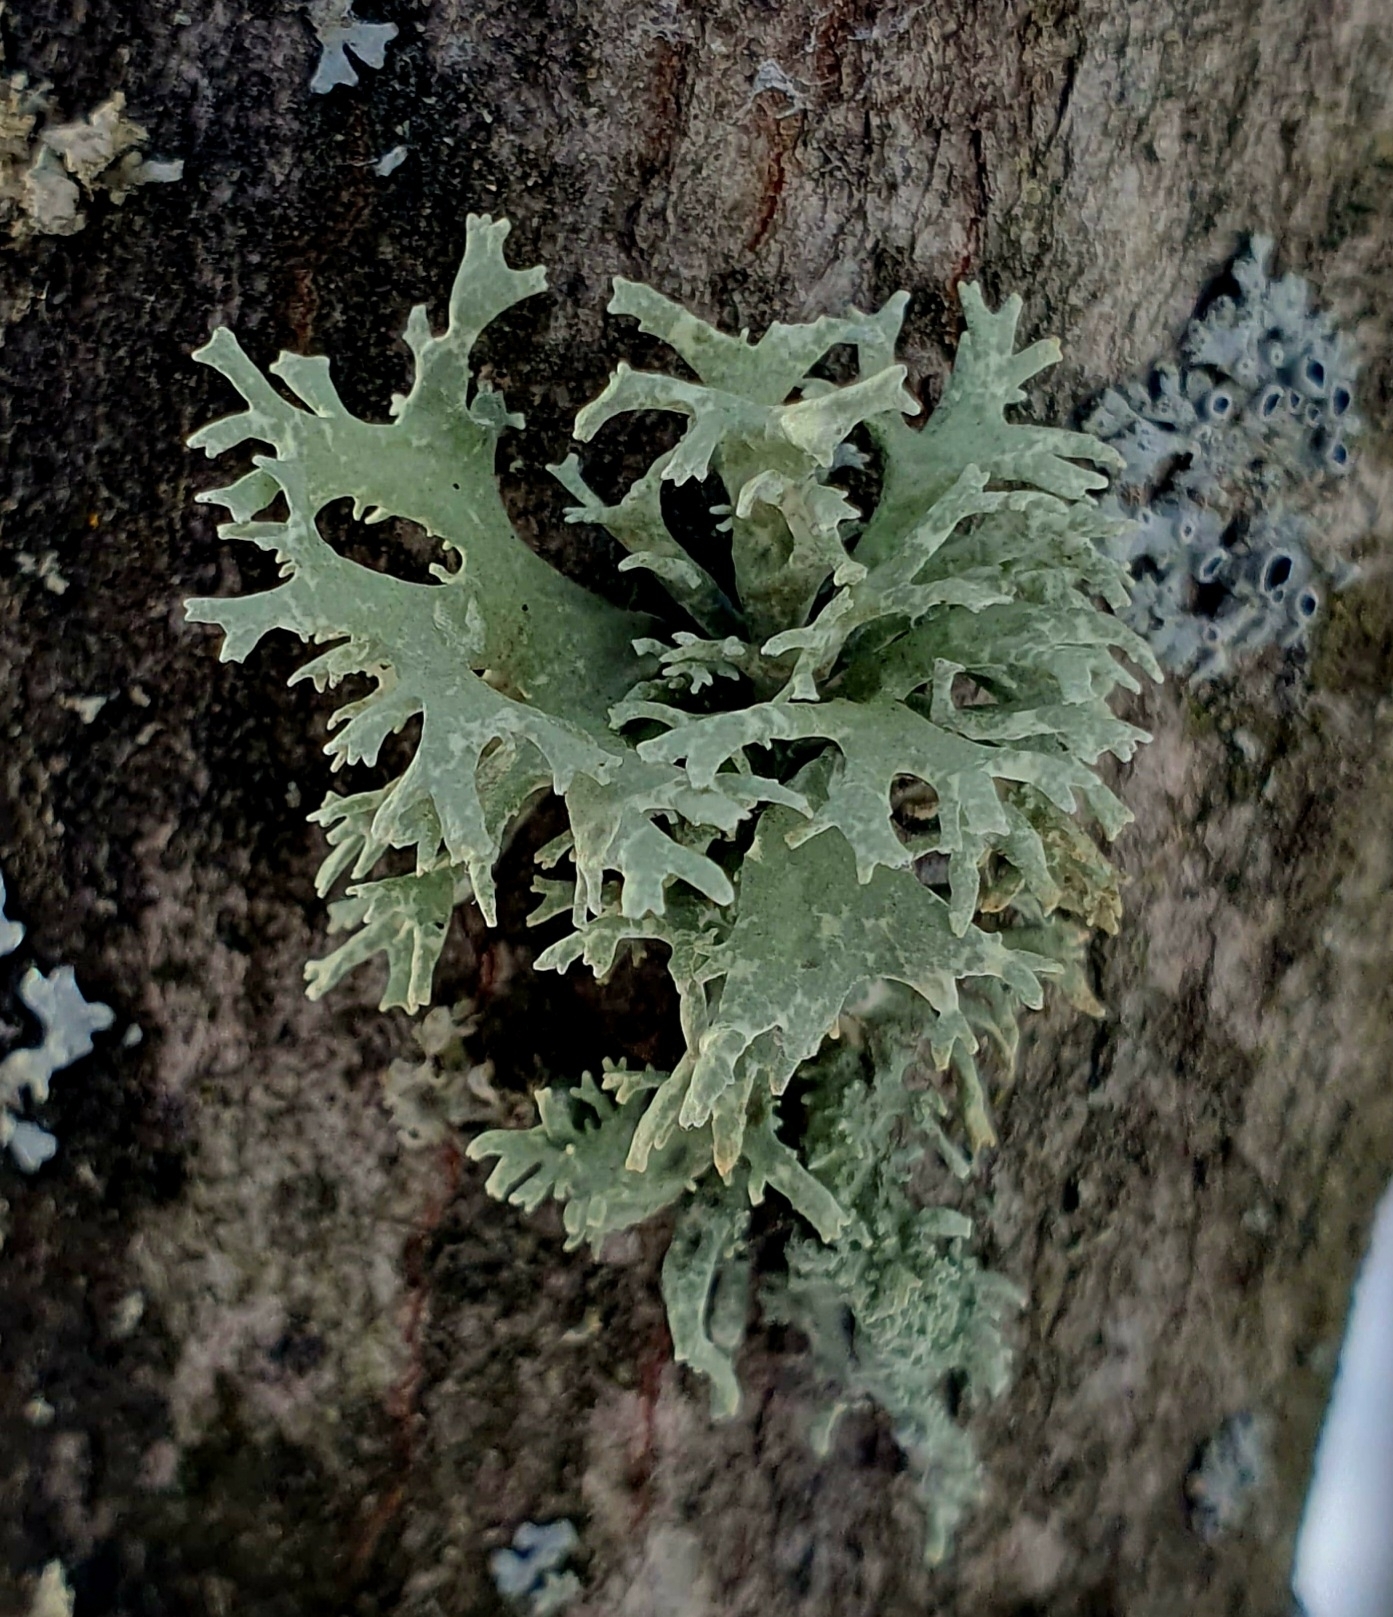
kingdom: Fungi
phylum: Ascomycota
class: Lecanoromycetes
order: Lecanorales
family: Parmeliaceae
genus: Evernia
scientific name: Evernia prunastri
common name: Oak moss
